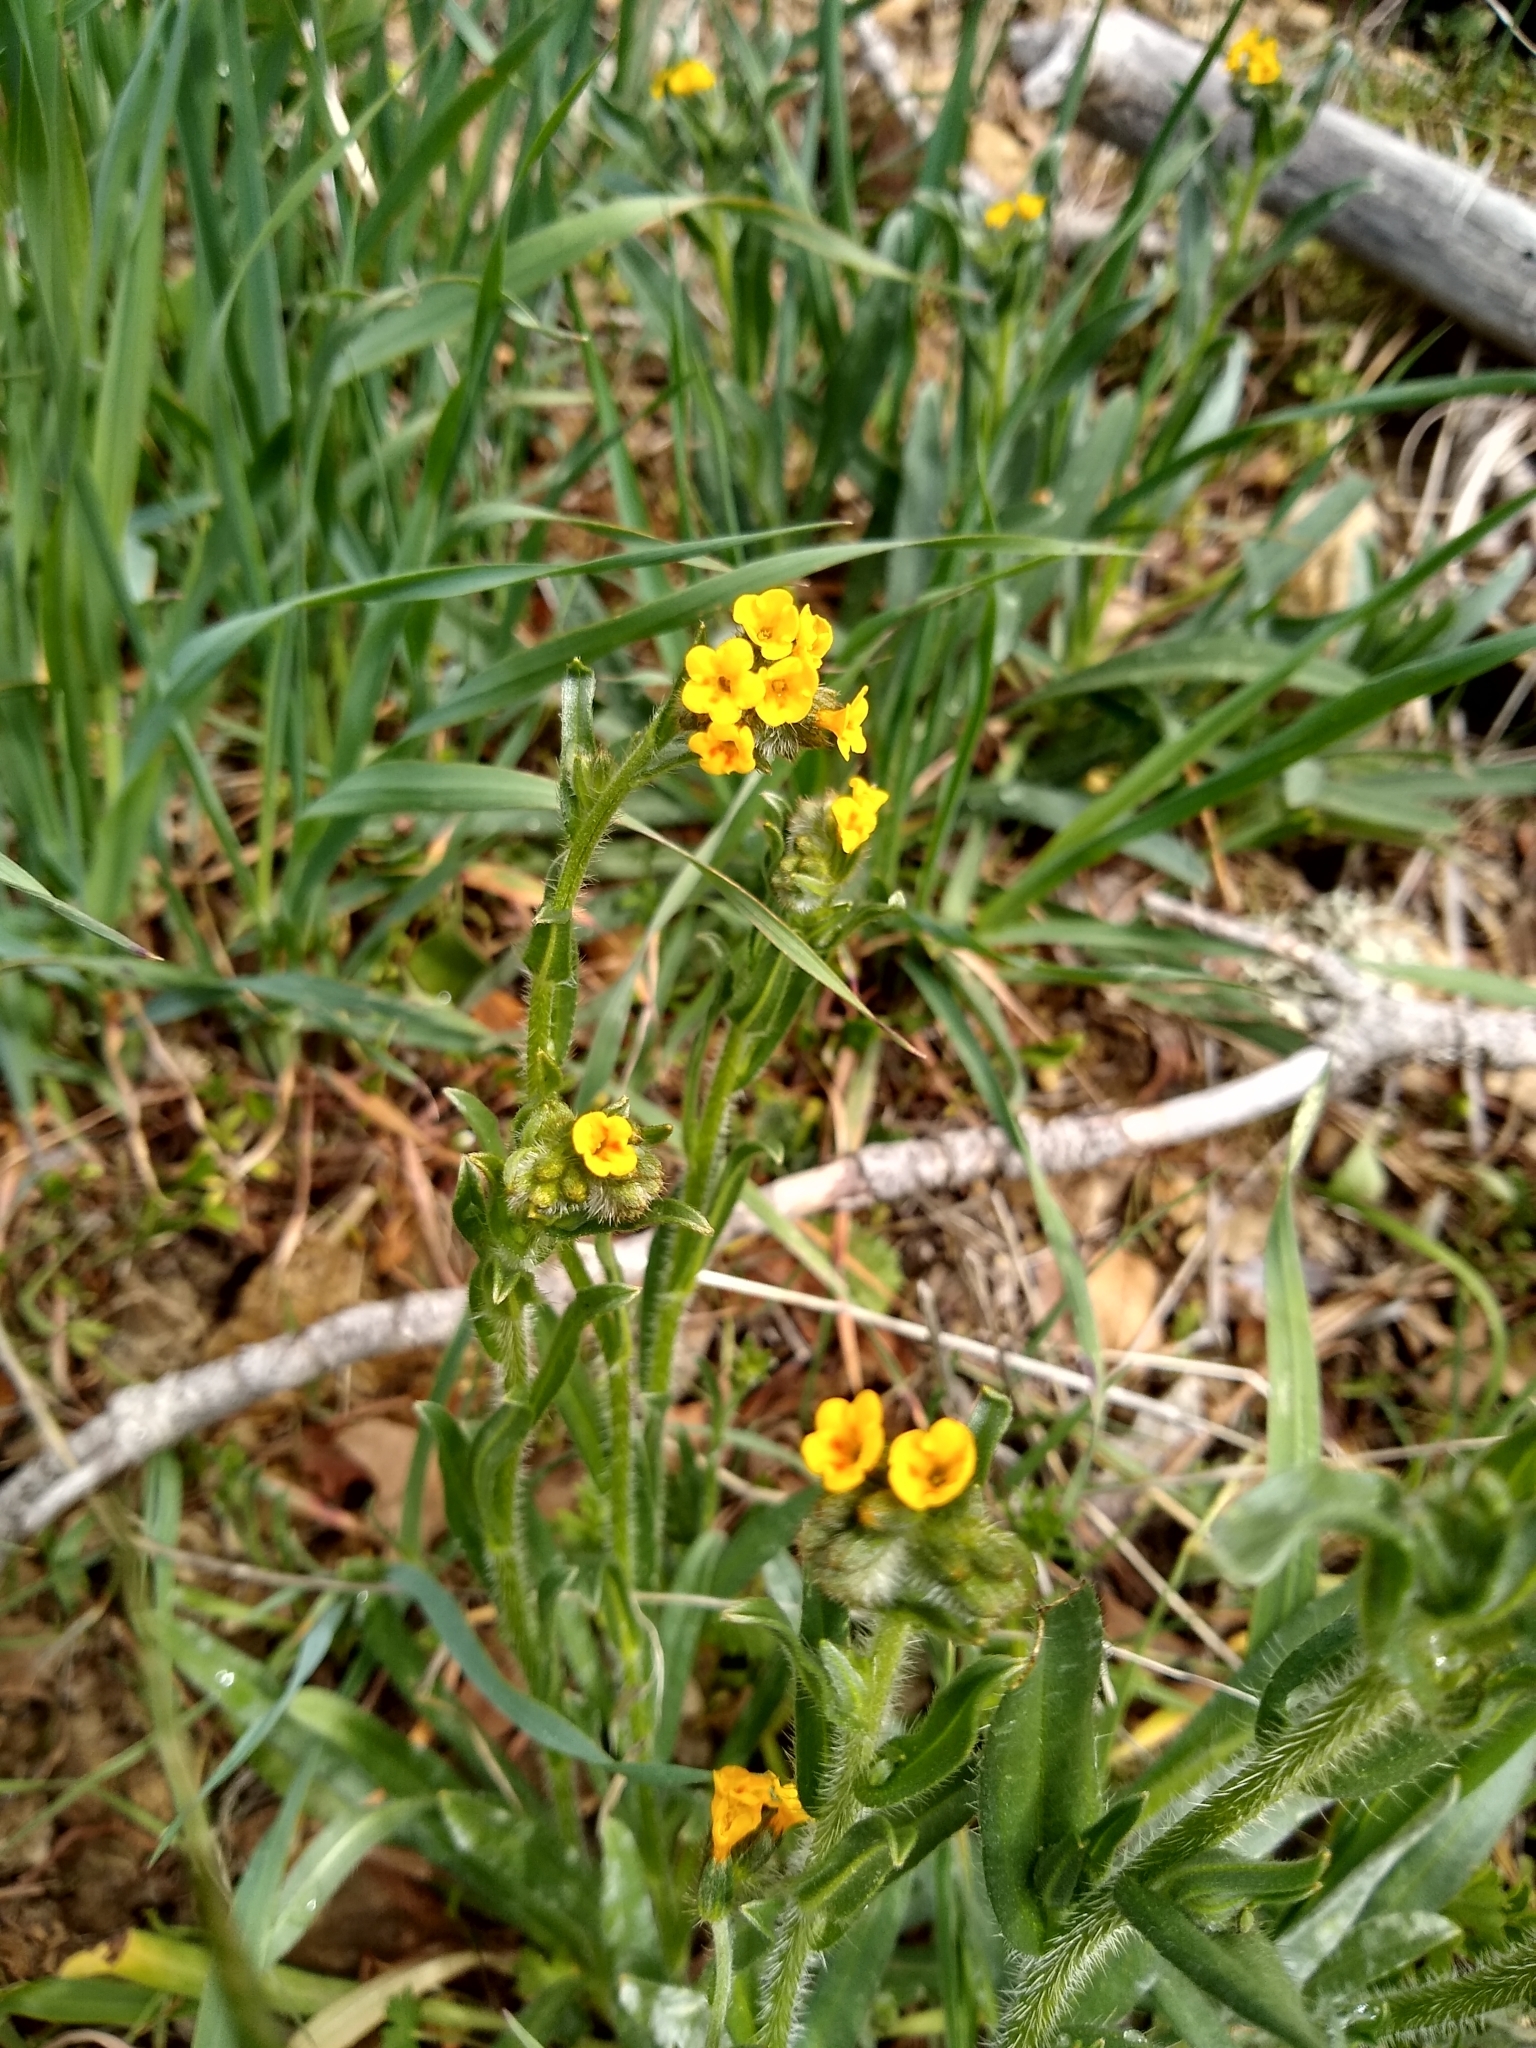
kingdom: Plantae
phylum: Tracheophyta
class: Magnoliopsida
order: Boraginales
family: Boraginaceae
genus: Amsinckia
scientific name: Amsinckia menziesii
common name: Menzies' fiddleneck
